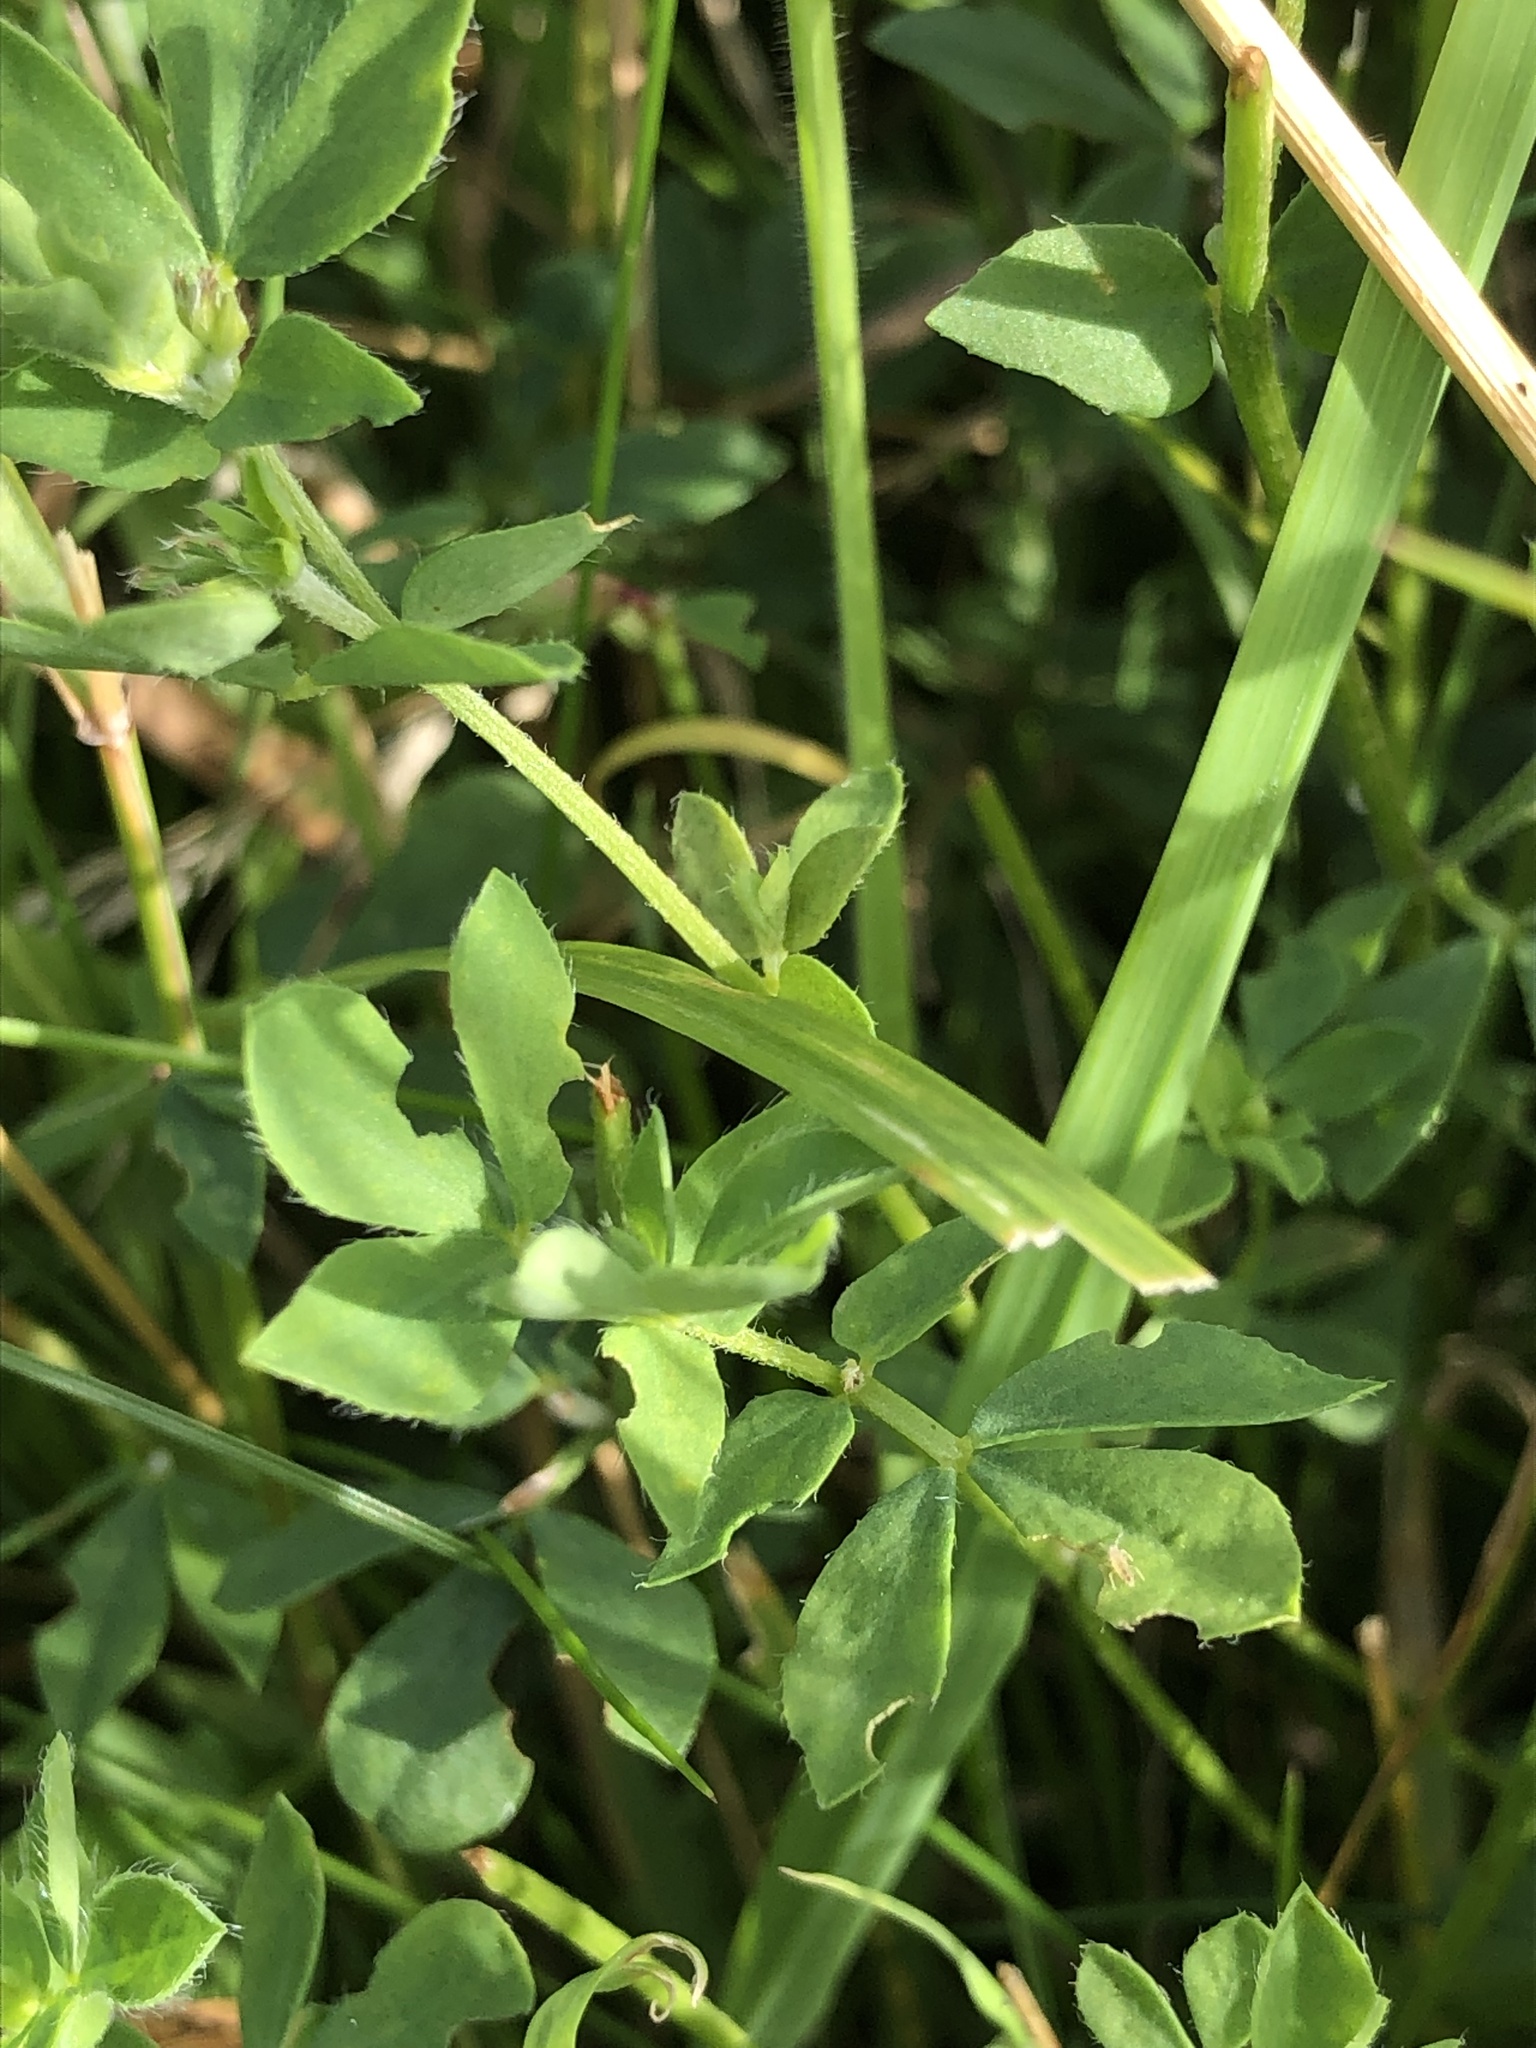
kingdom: Plantae
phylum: Tracheophyta
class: Magnoliopsida
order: Fabales
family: Fabaceae
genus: Lotus
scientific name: Lotus corniculatus
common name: Common bird's-foot-trefoil
